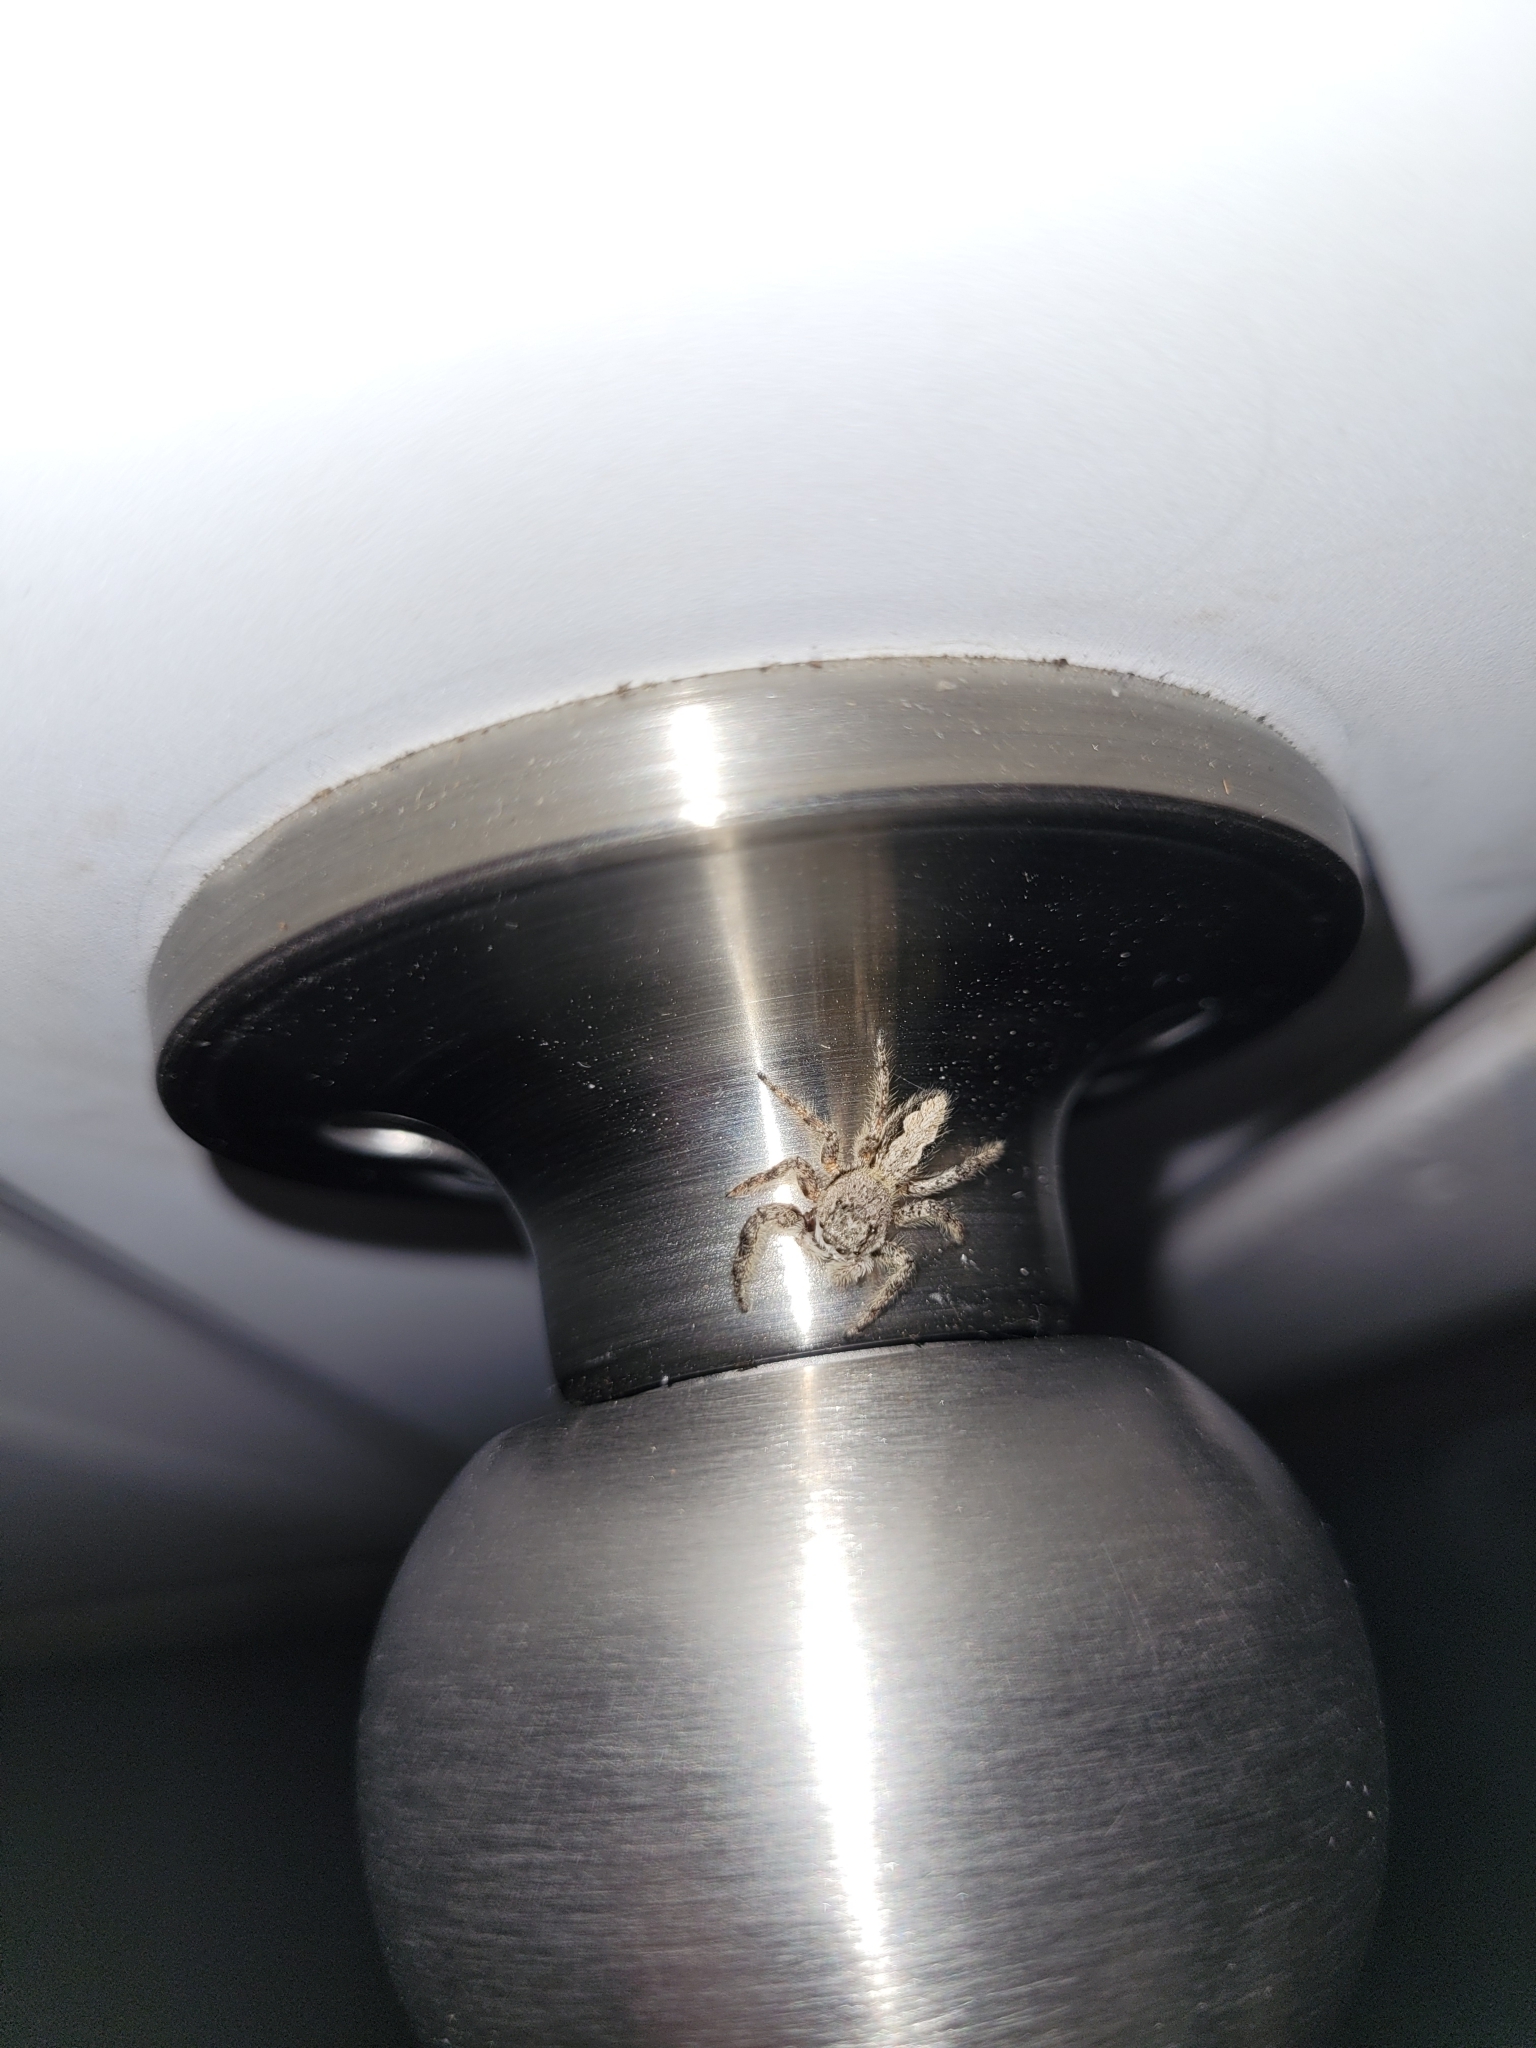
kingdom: Animalia
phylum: Arthropoda
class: Arachnida
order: Araneae
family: Salticidae
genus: Platycryptus
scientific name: Platycryptus undatus
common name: Tan jumping spider
